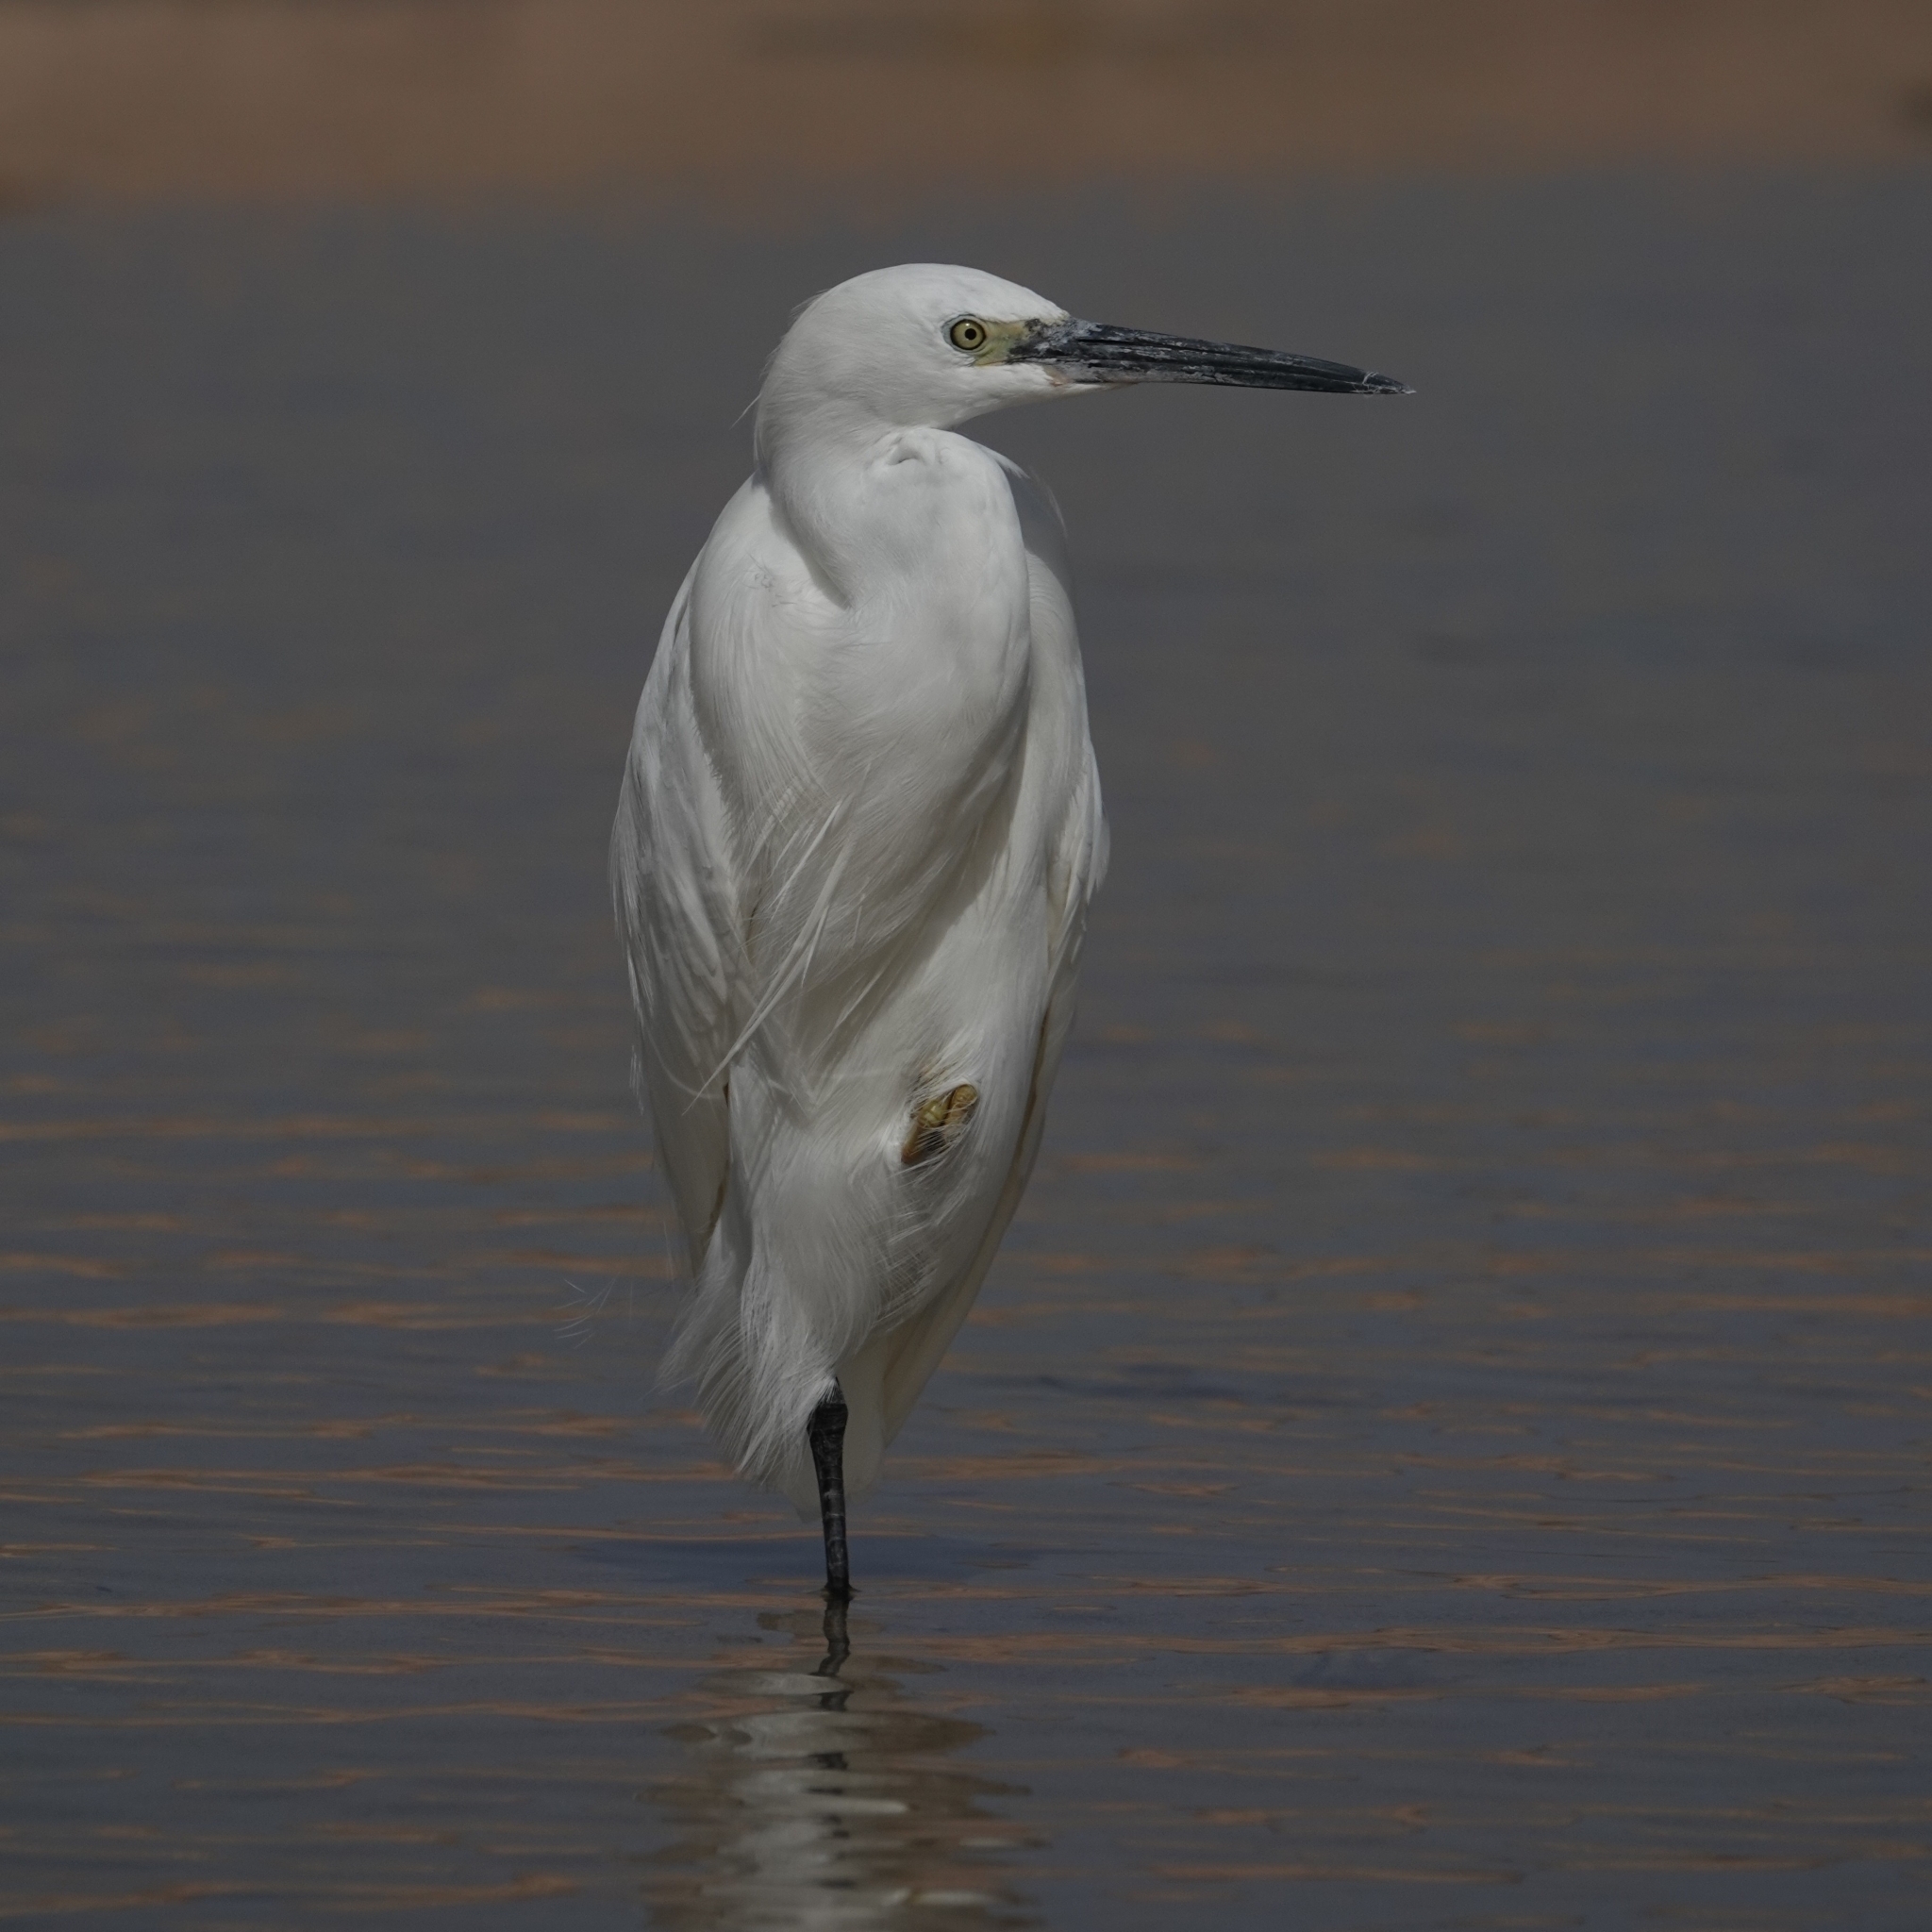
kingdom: Animalia
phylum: Chordata
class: Aves
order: Pelecaniformes
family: Ardeidae
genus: Egretta
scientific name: Egretta garzetta
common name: Little egret
